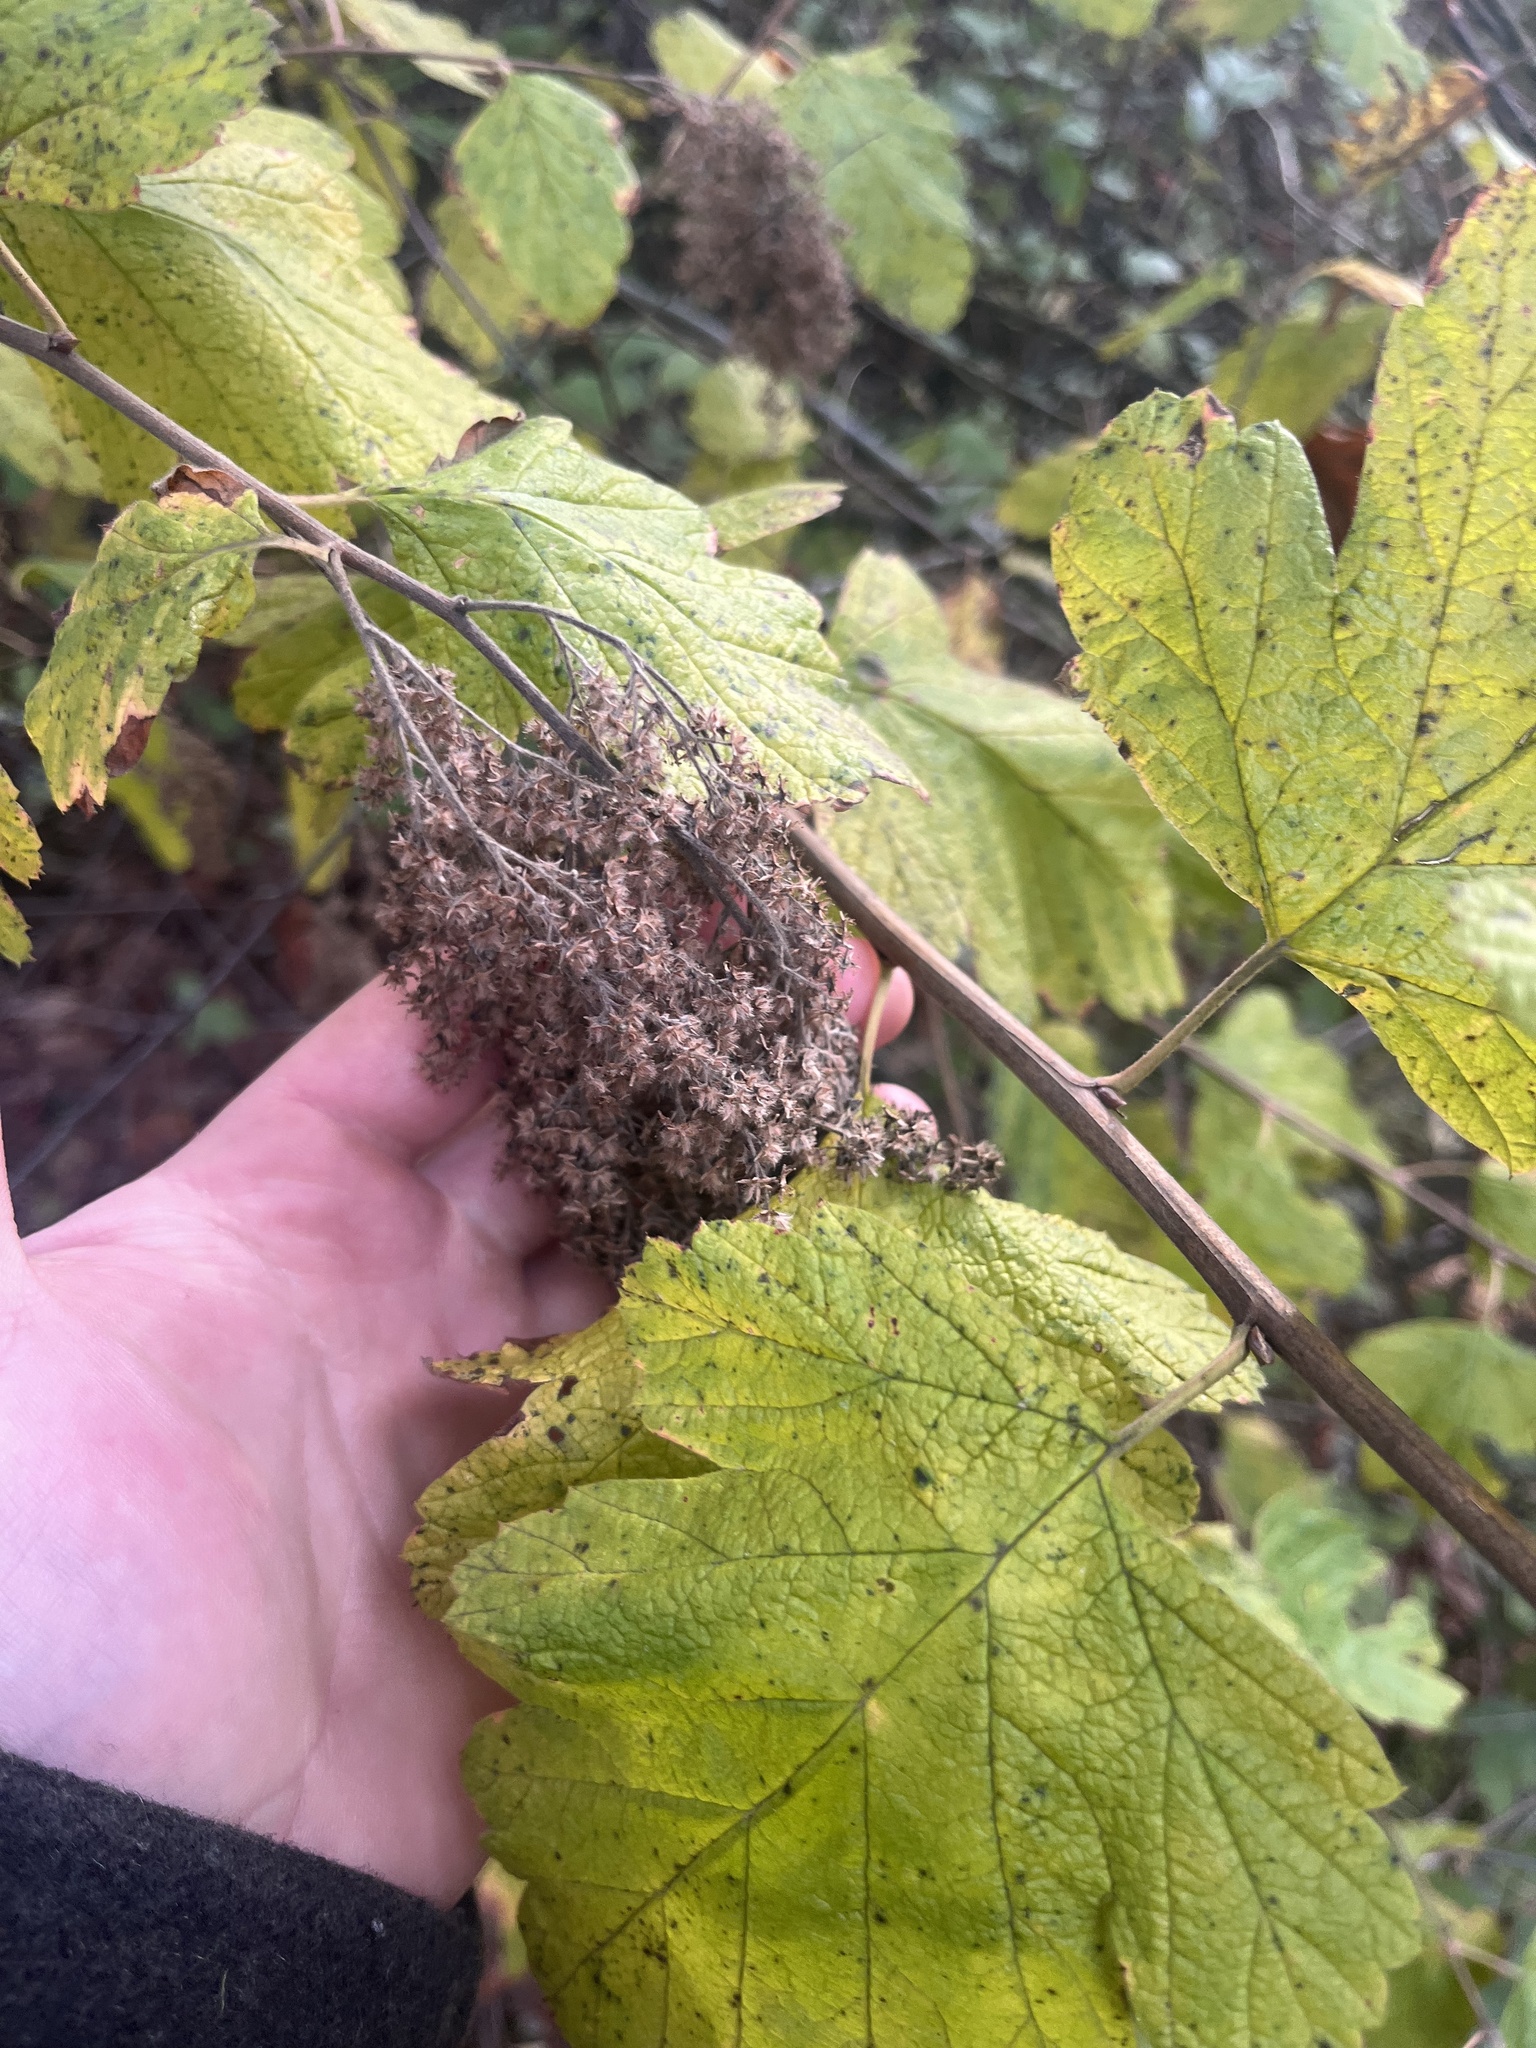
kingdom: Plantae
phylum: Tracheophyta
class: Magnoliopsida
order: Rosales
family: Rosaceae
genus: Holodiscus
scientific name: Holodiscus discolor
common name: Oceanspray
